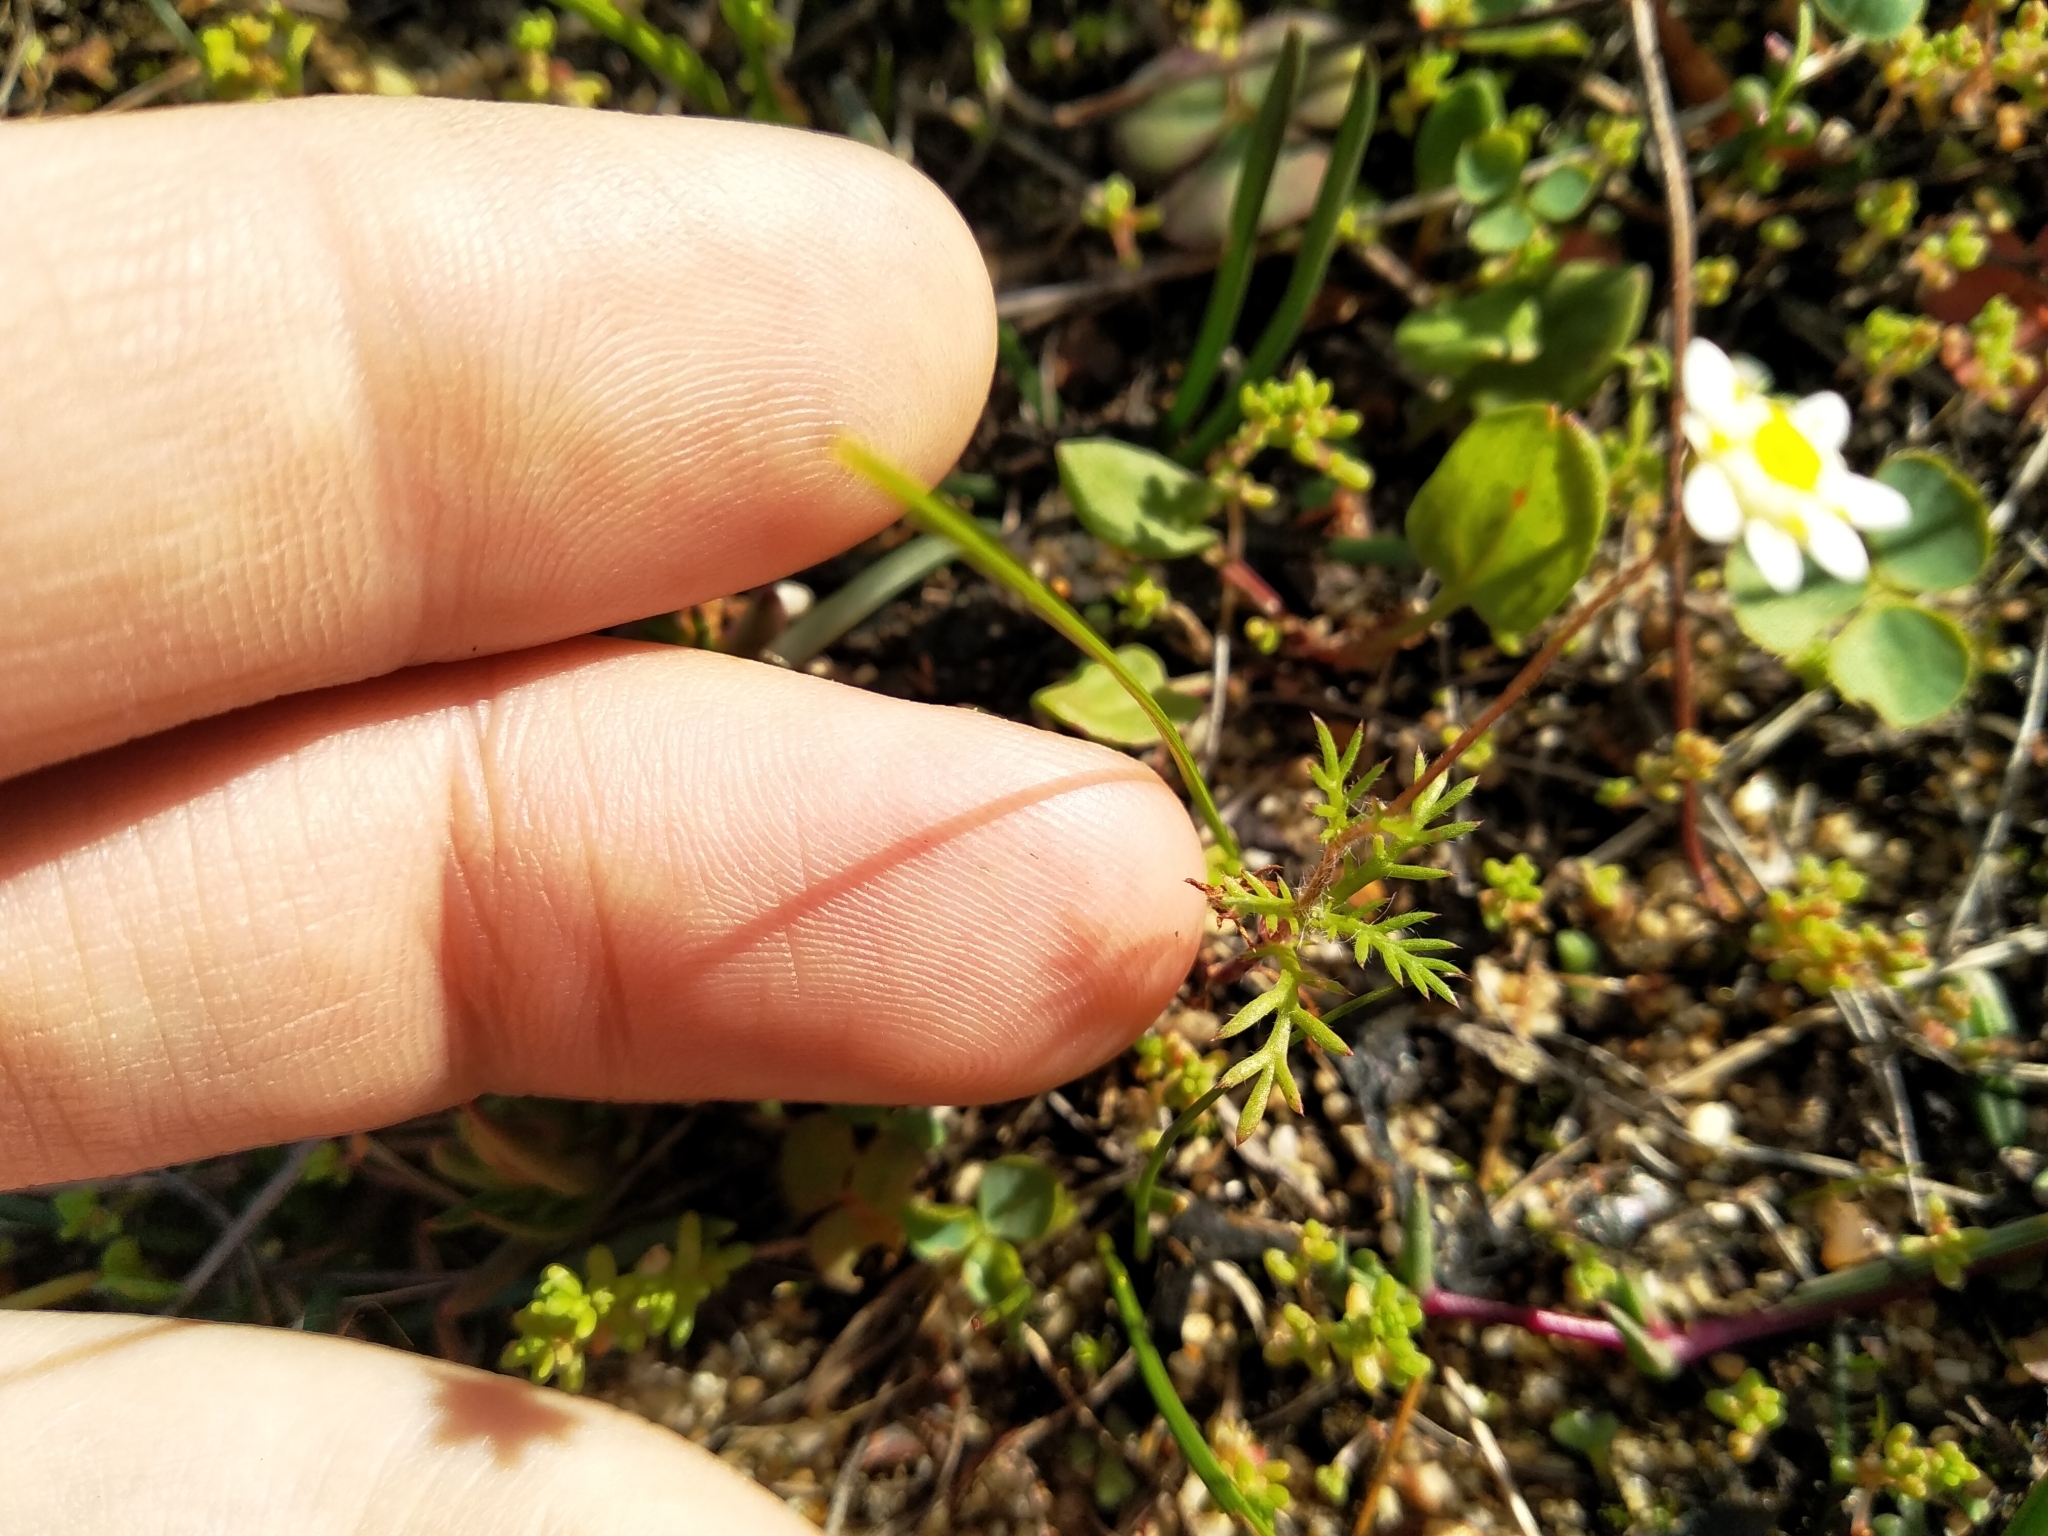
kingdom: Plantae
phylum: Tracheophyta
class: Magnoliopsida
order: Asterales
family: Asteraceae
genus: Cotula
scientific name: Cotula turbinata
